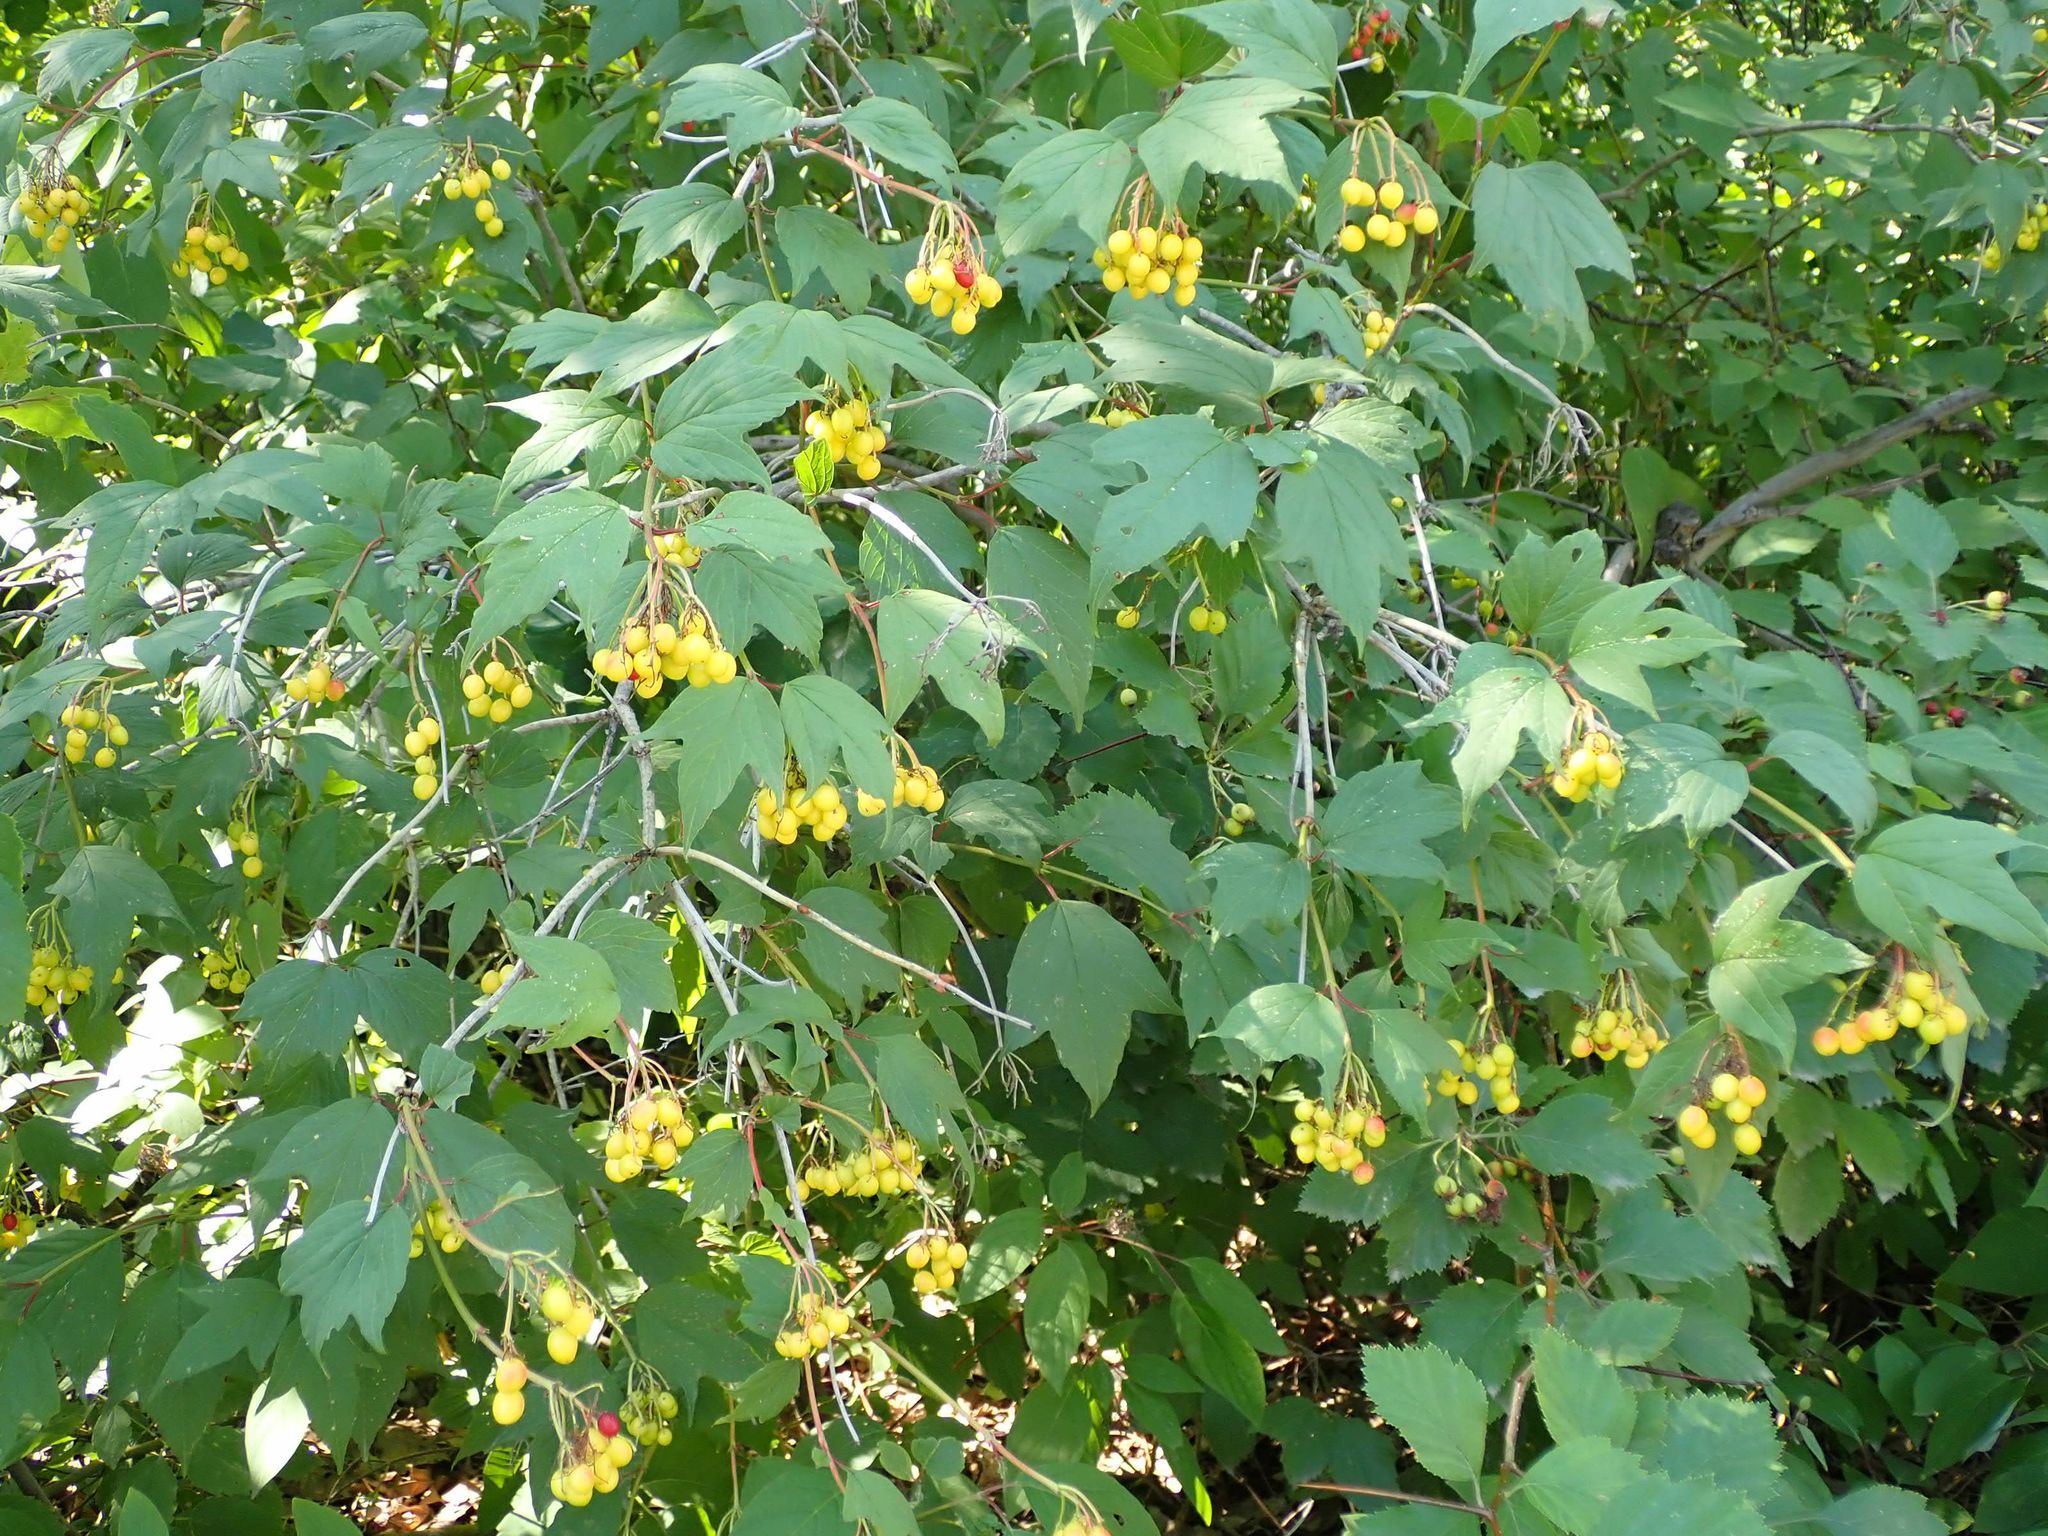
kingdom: Plantae
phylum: Tracheophyta
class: Magnoliopsida
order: Dipsacales
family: Viburnaceae
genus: Viburnum
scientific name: Viburnum trilobum
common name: American cranberrybush
